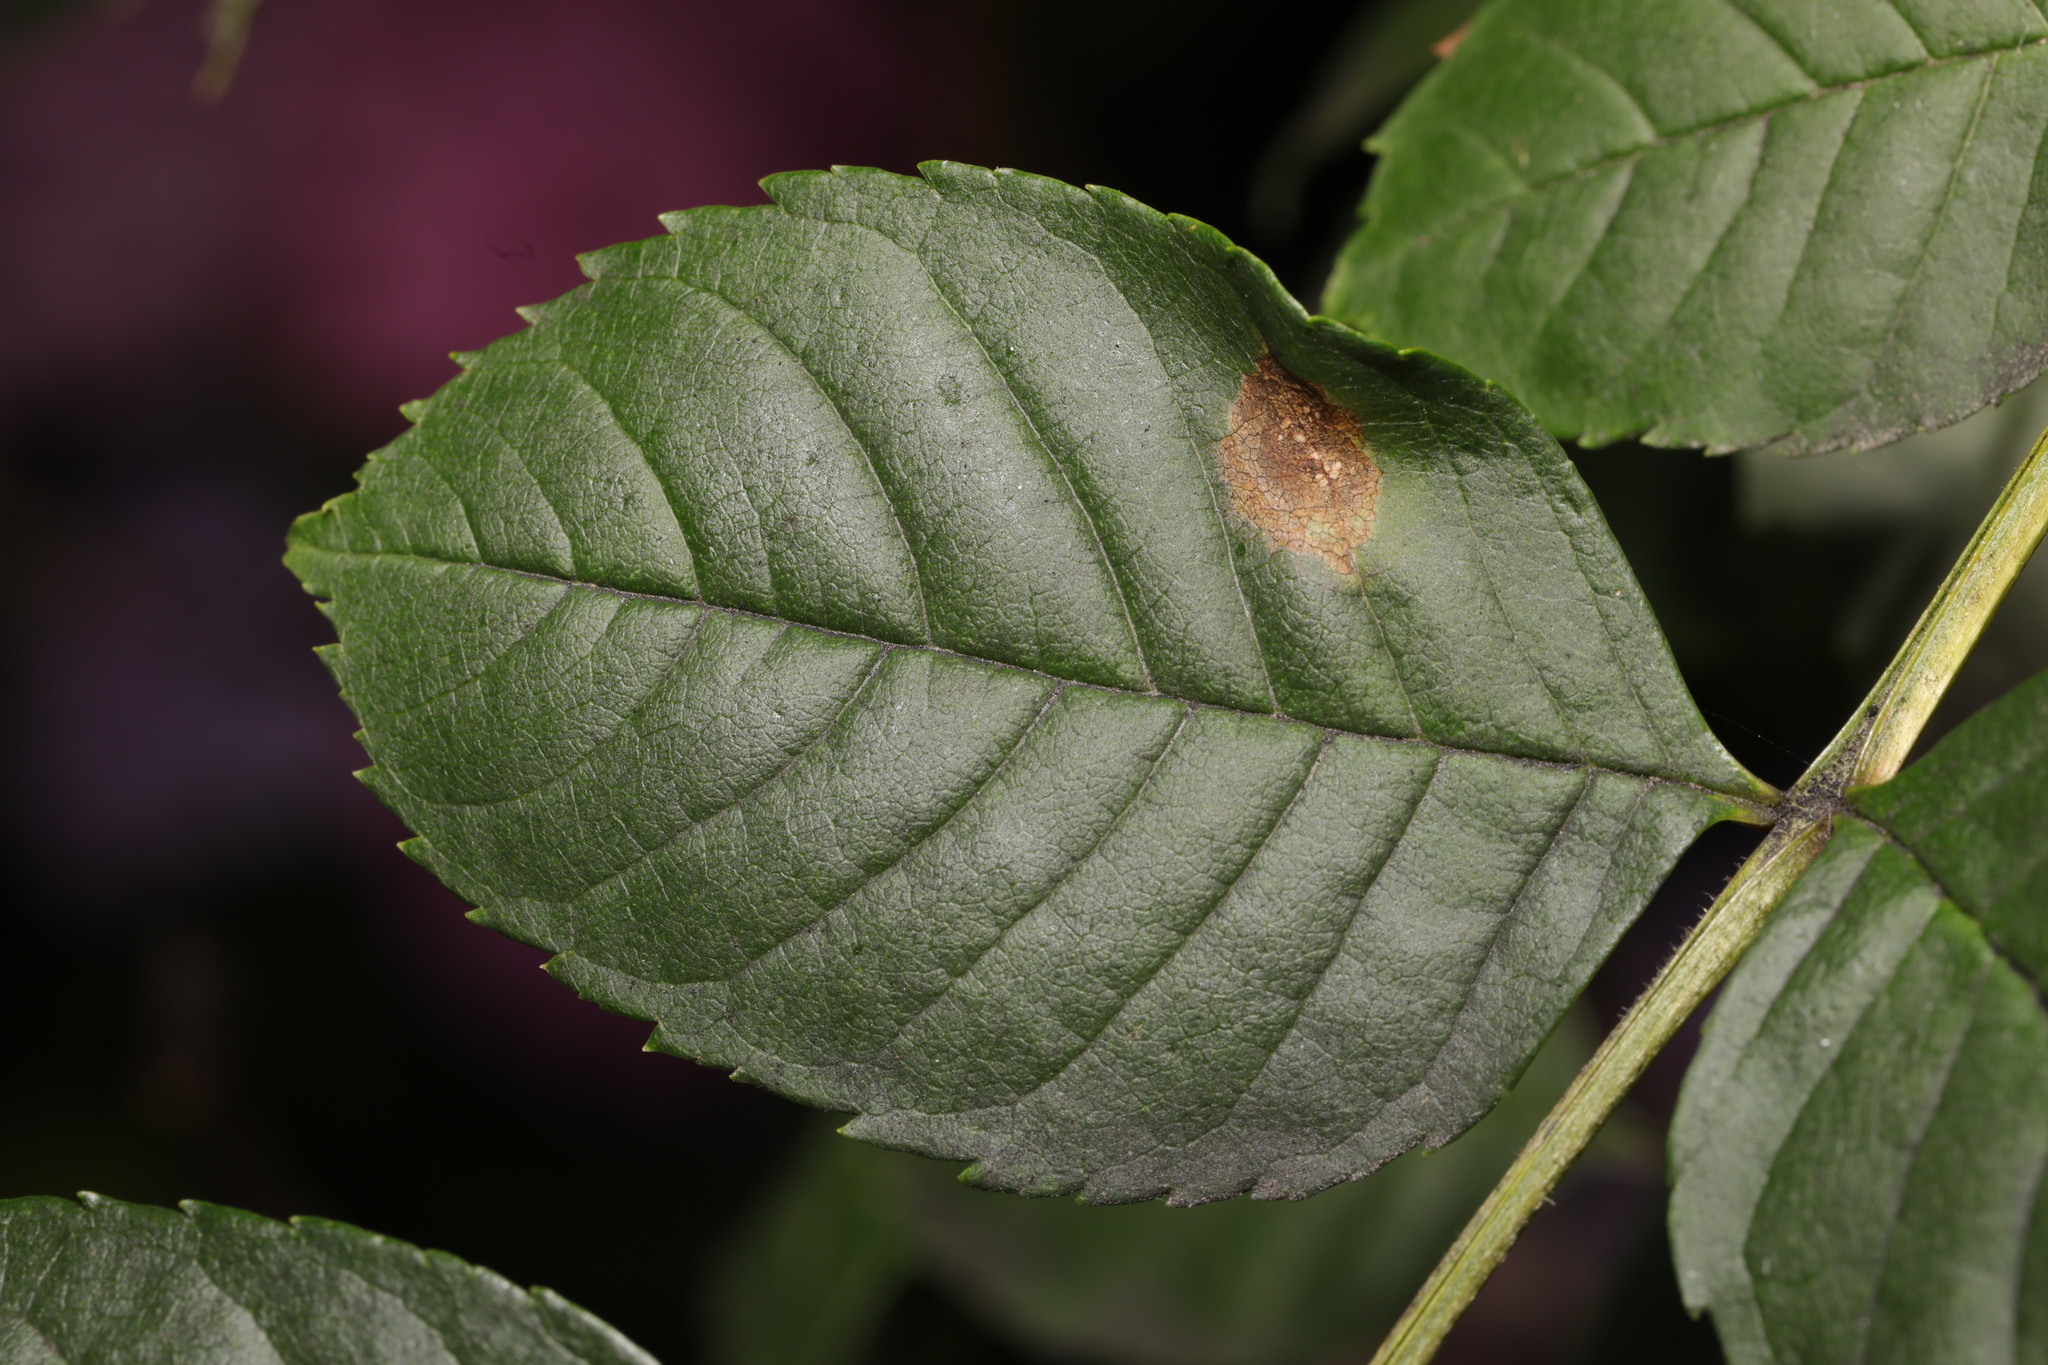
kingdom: Animalia
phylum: Arthropoda
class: Insecta
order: Diptera
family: Cecidomyiidae
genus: Dasineura
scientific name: Dasineura fraxinea
